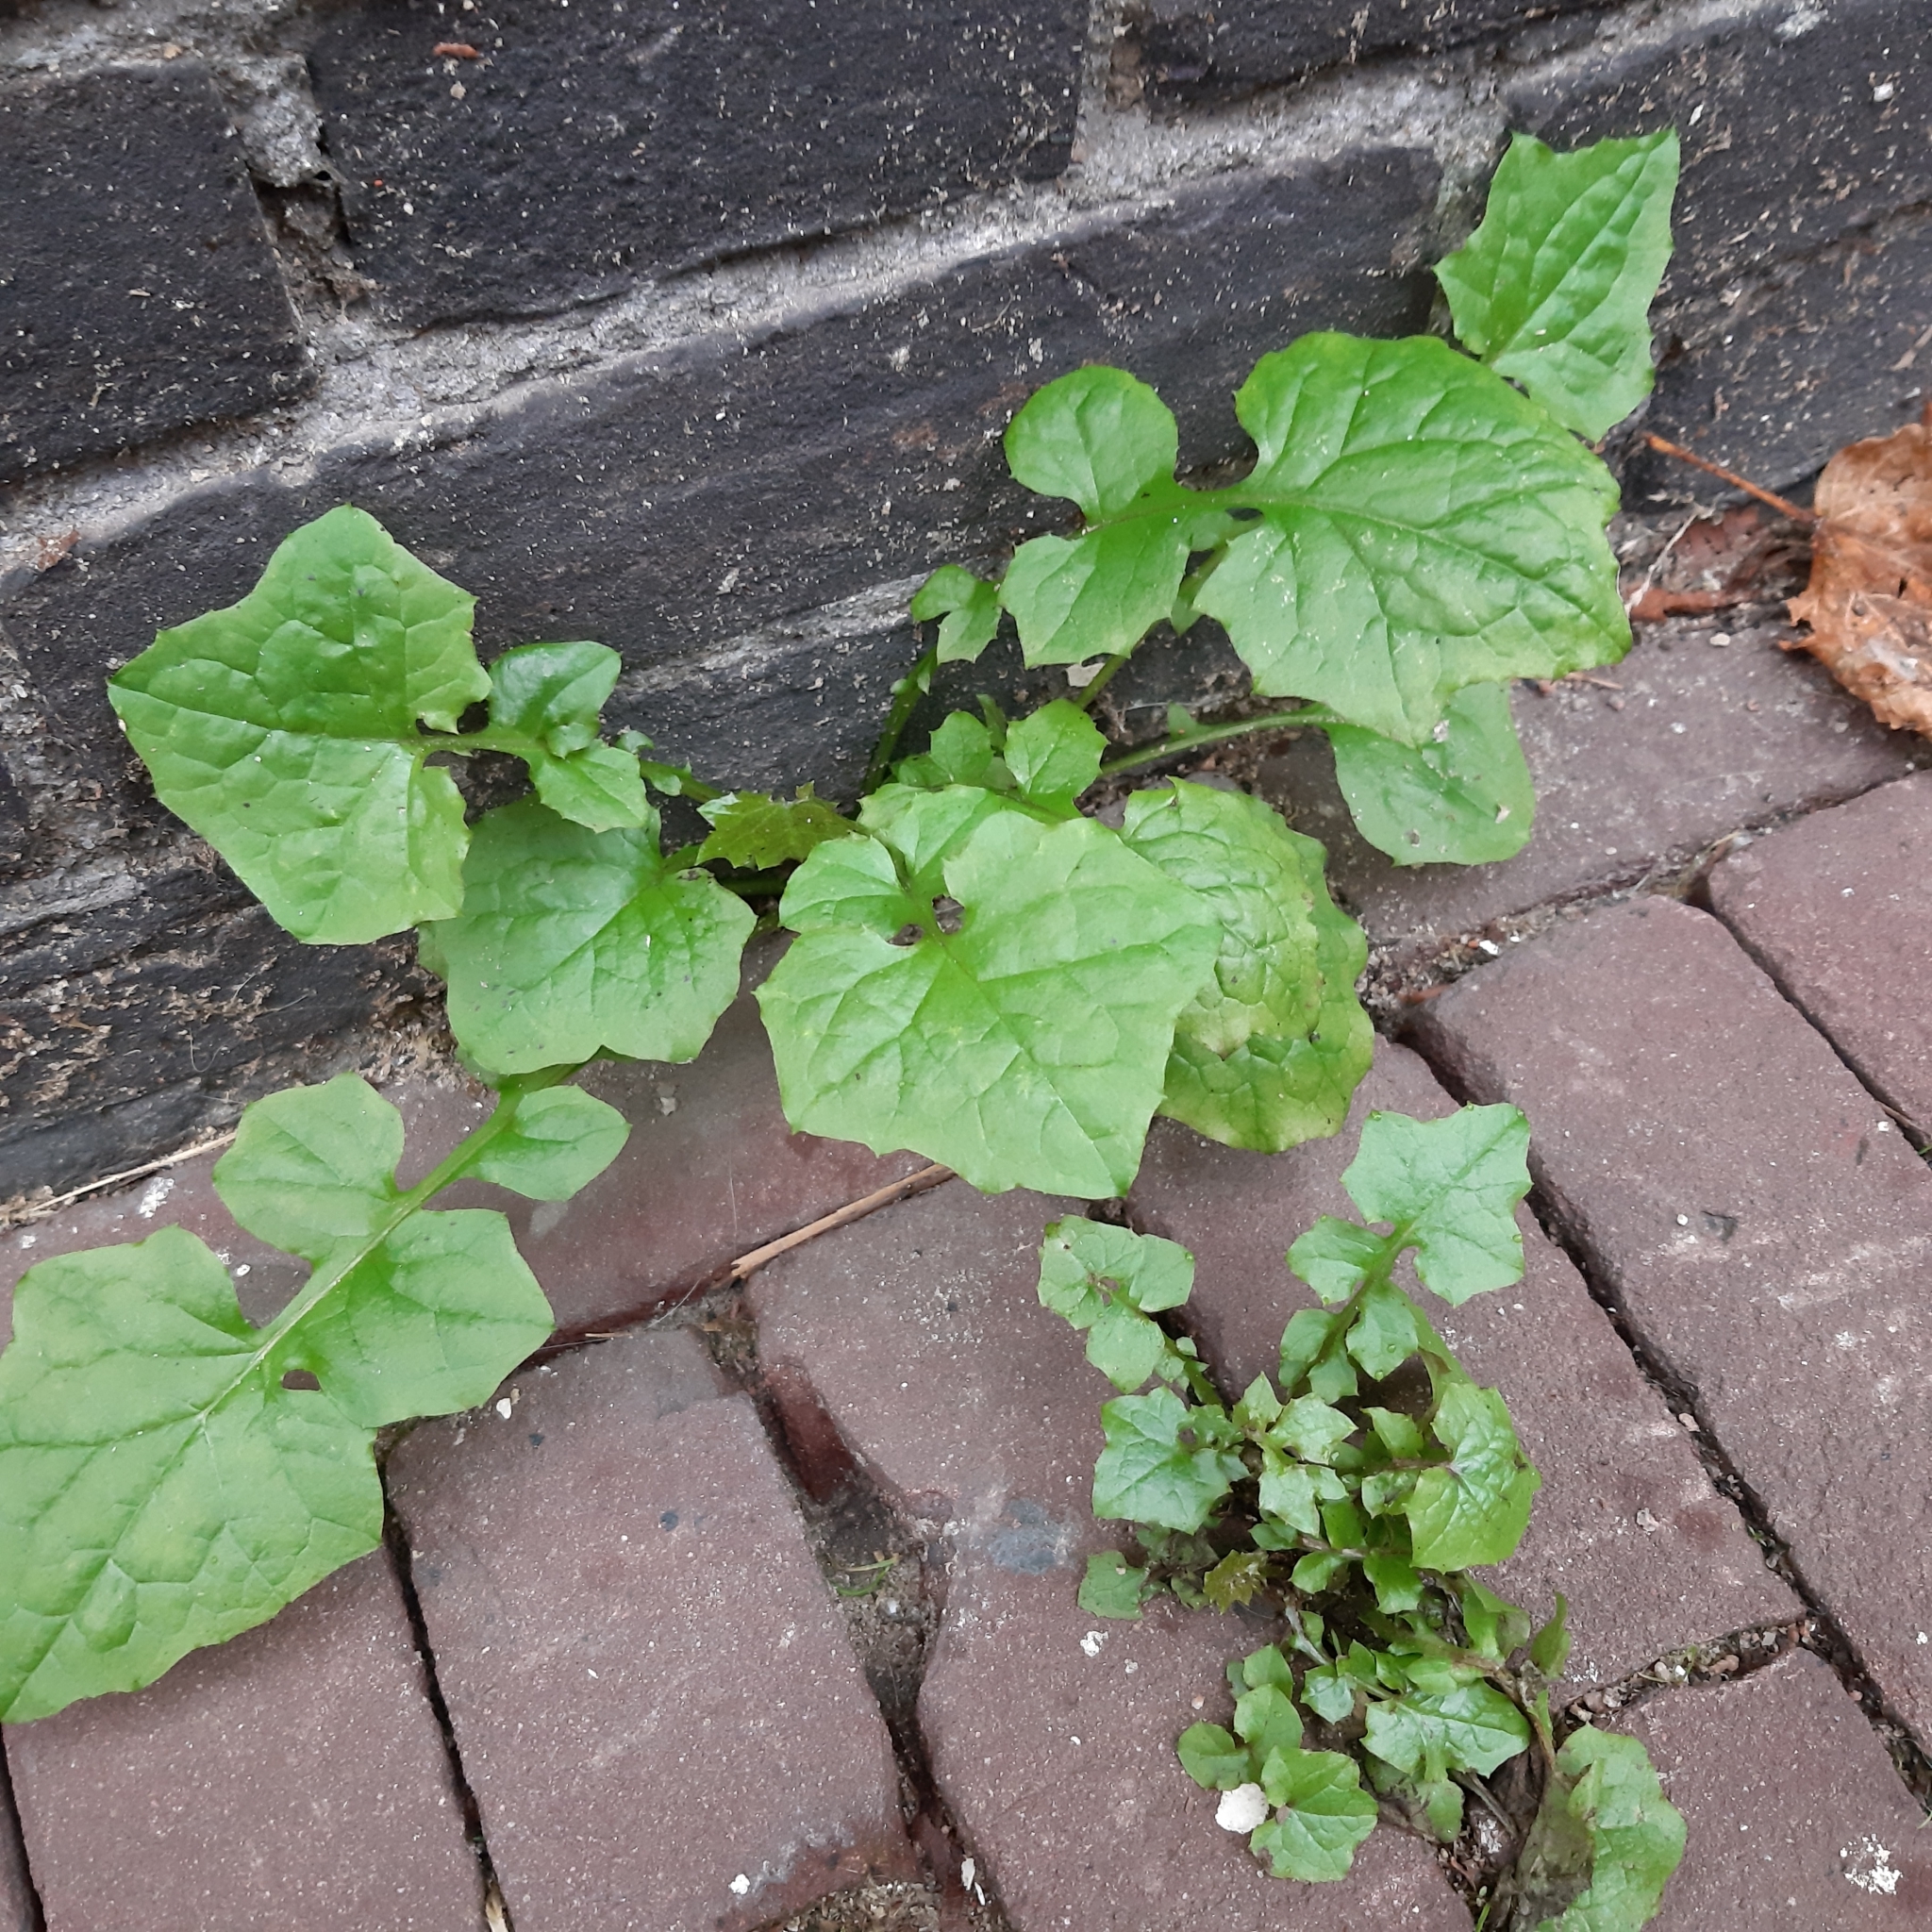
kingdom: Plantae
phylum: Tracheophyta
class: Magnoliopsida
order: Asterales
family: Asteraceae
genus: Mycelis
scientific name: Mycelis muralis
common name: Wall lettuce
